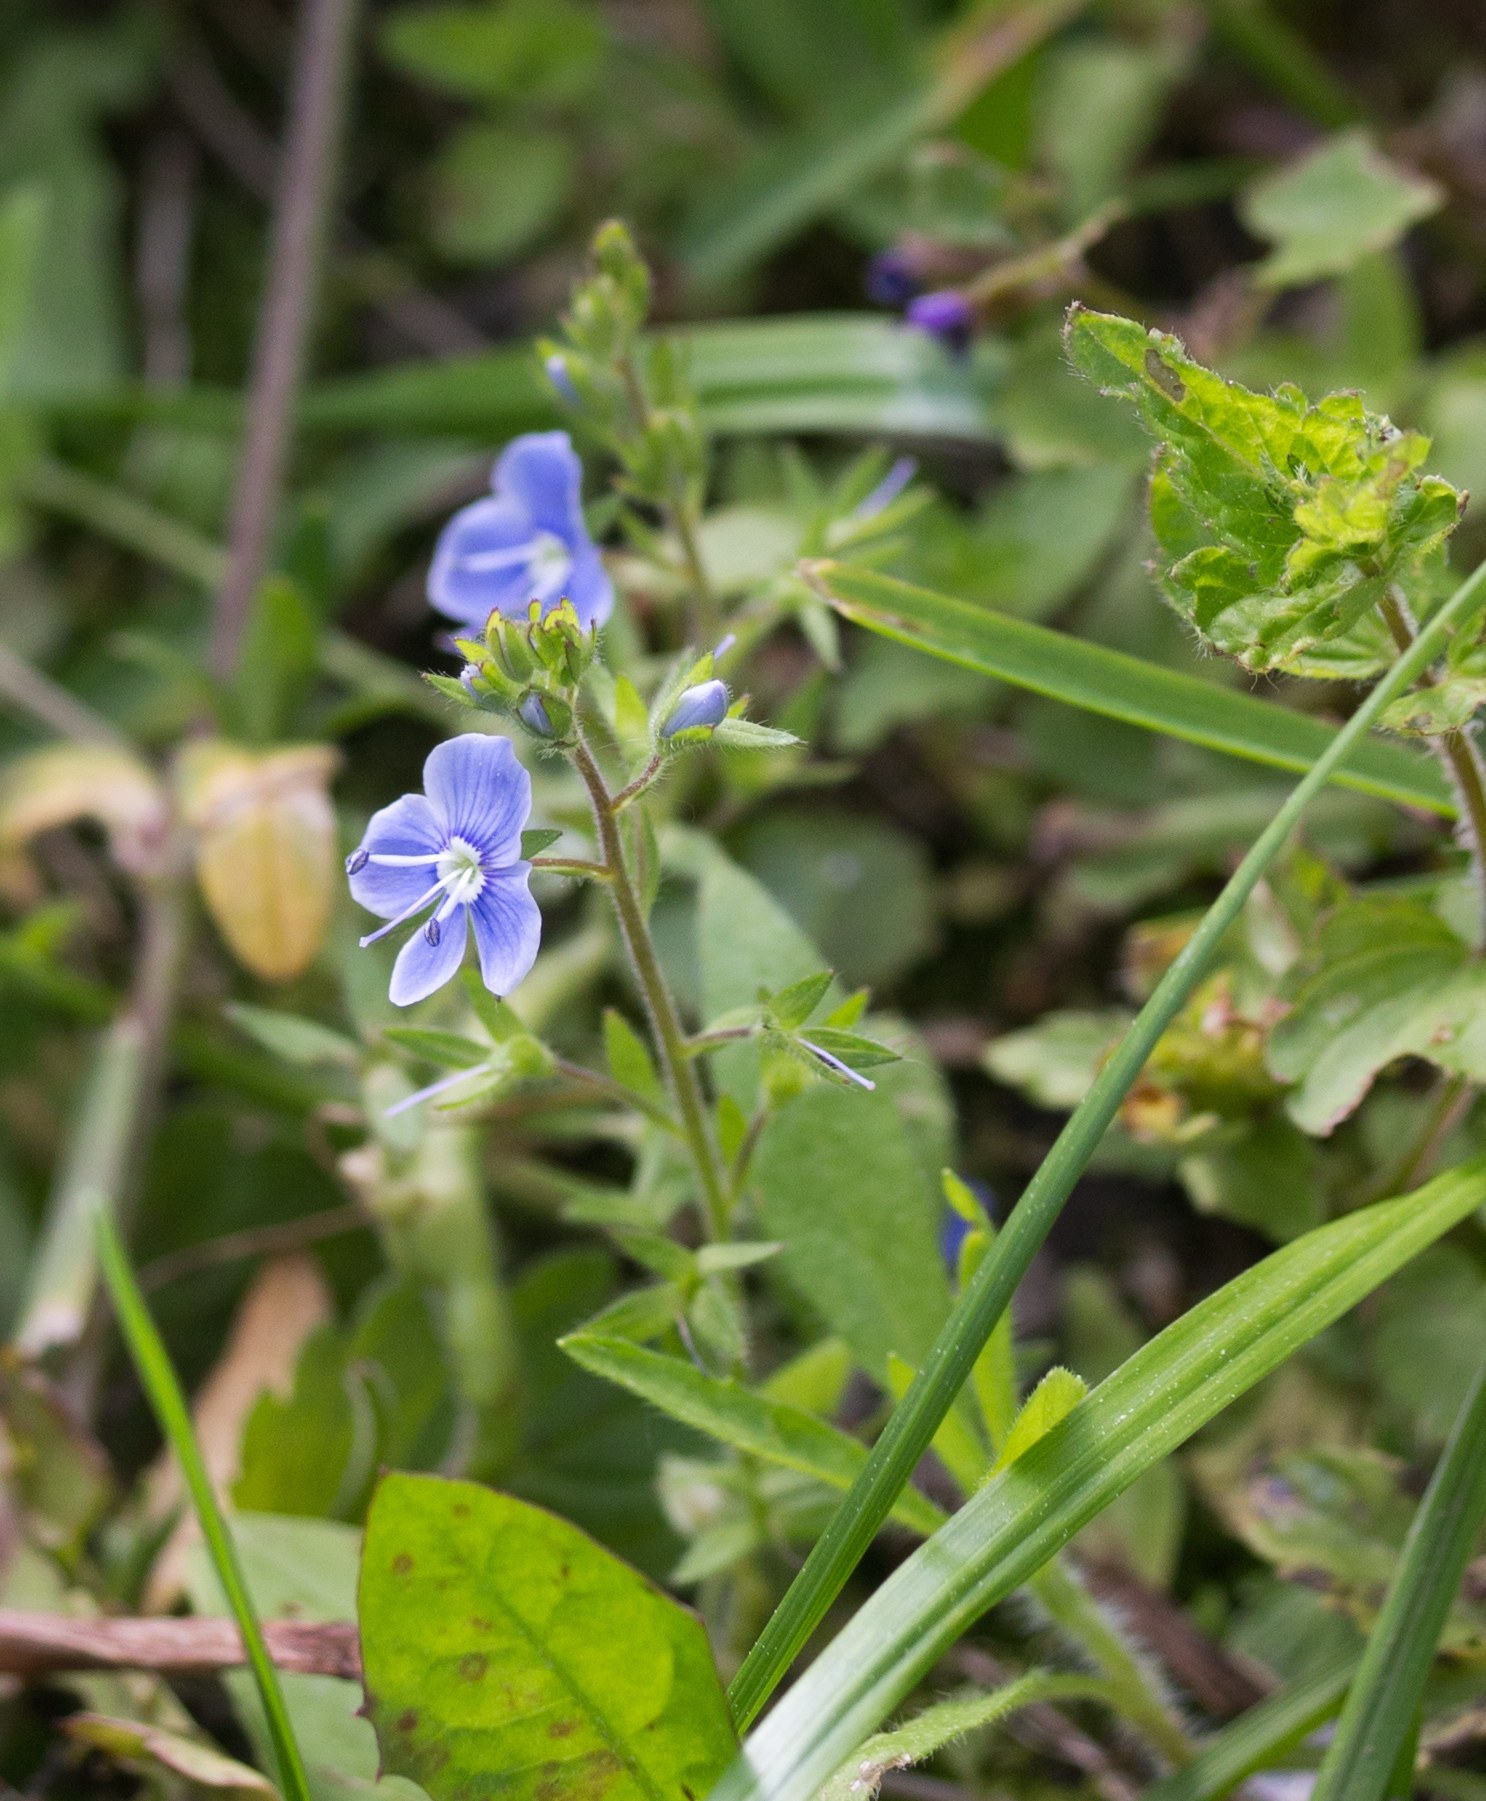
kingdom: Plantae
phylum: Tracheophyta
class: Magnoliopsida
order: Lamiales
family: Plantaginaceae
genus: Veronica
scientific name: Veronica chamaedrys
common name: Germander speedwell
